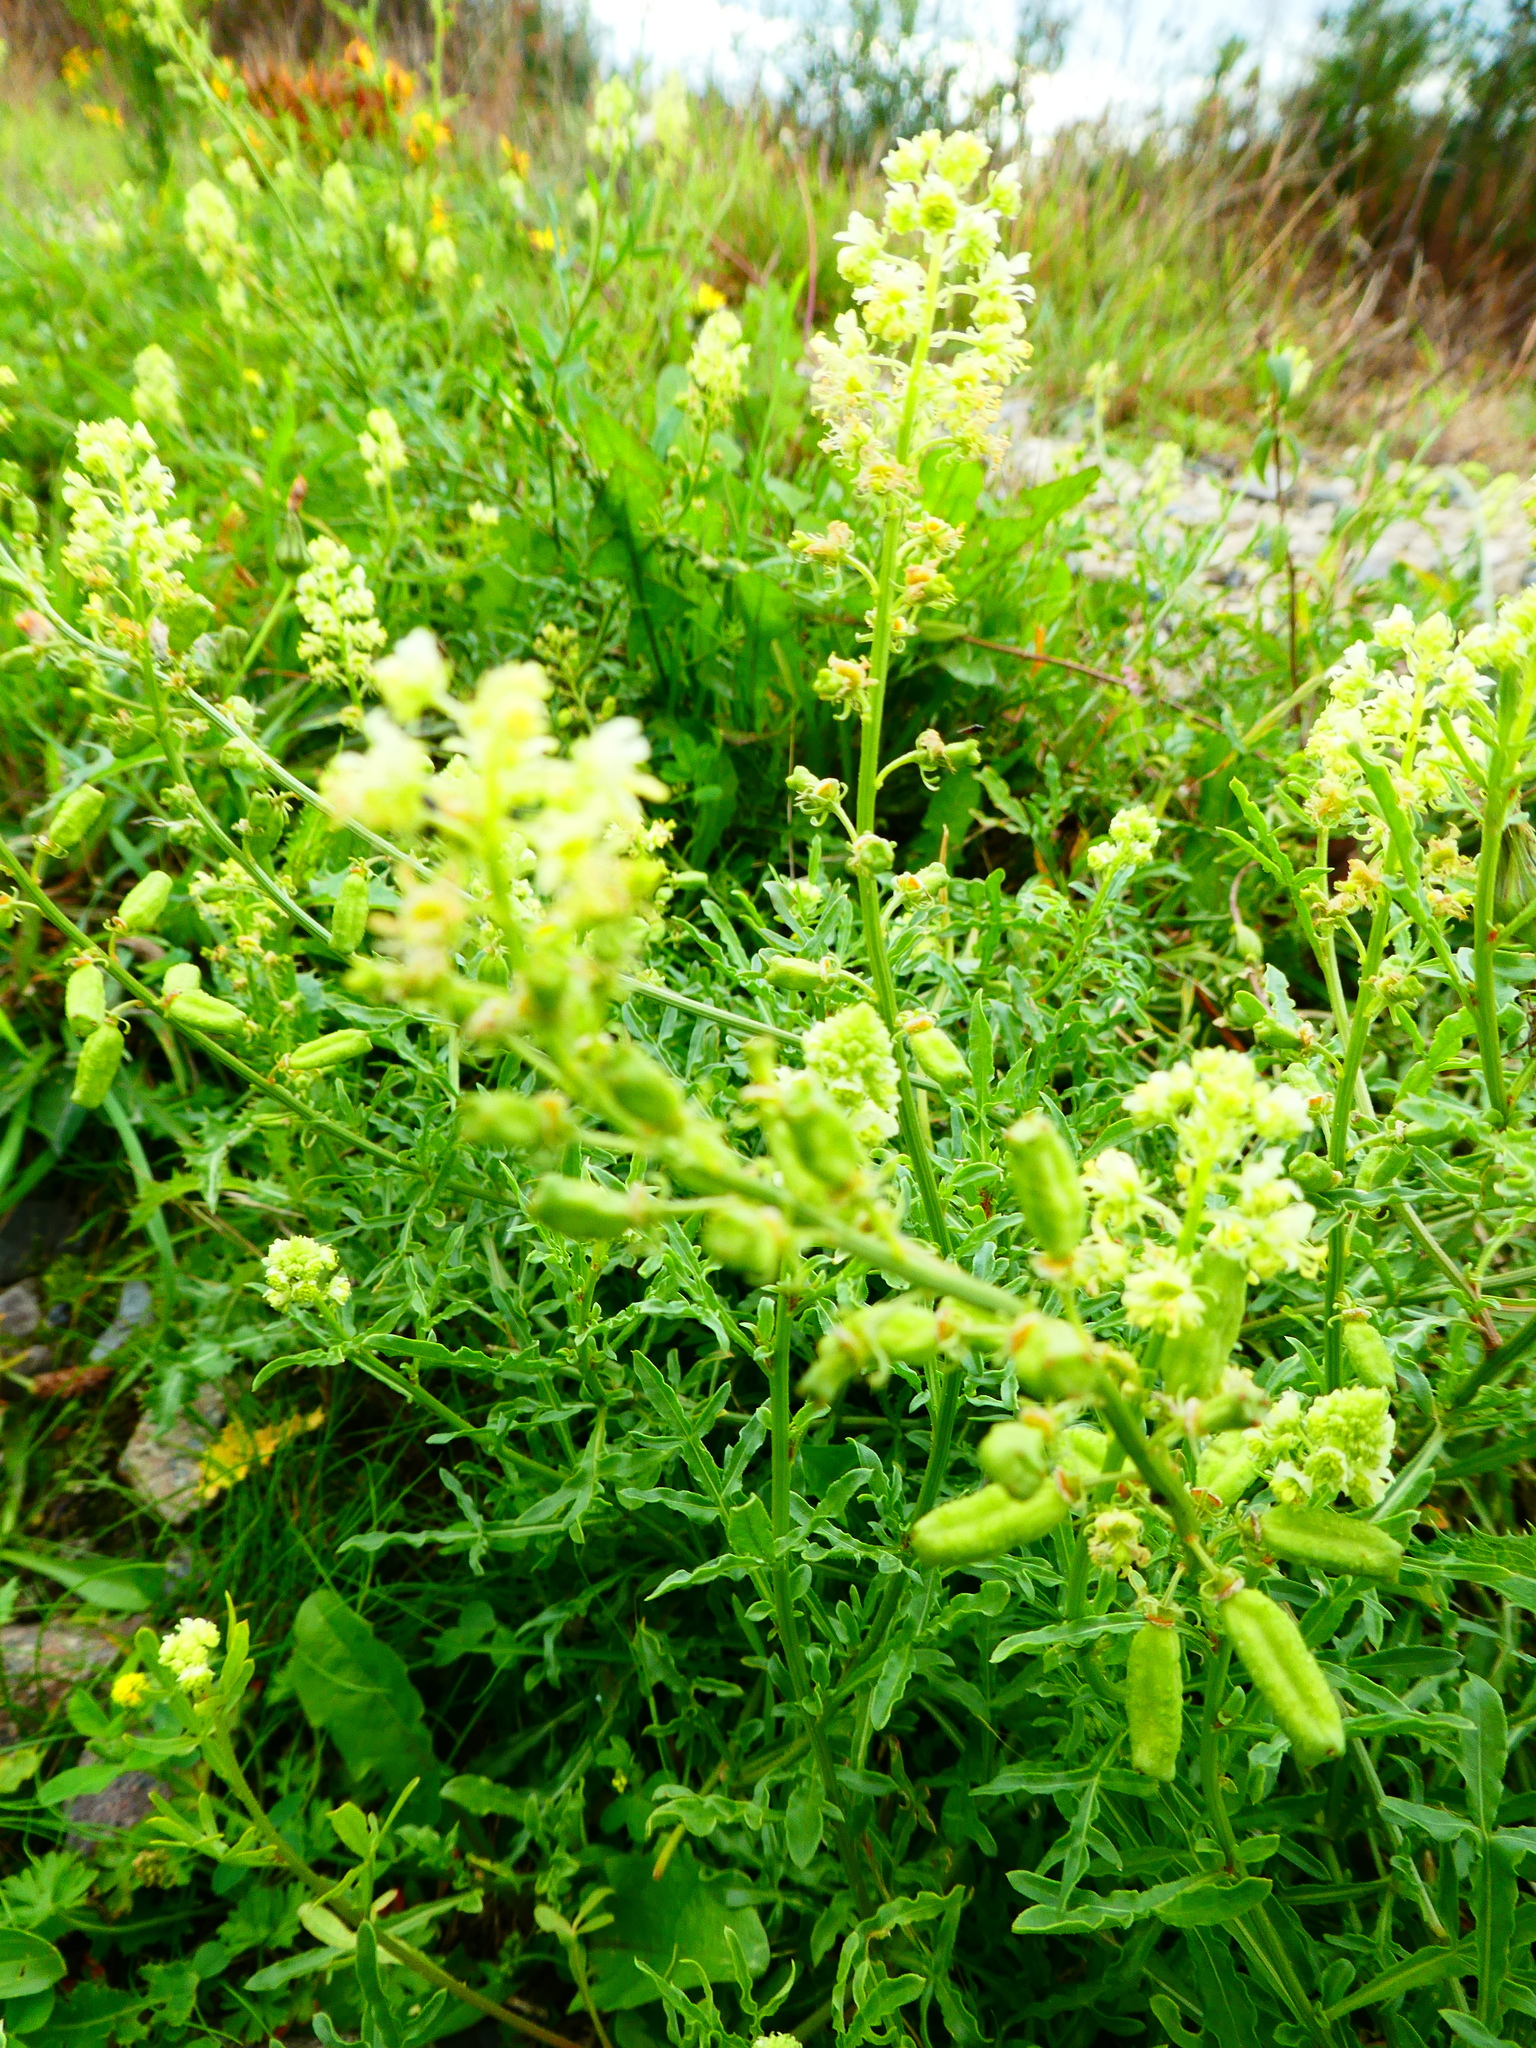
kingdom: Plantae
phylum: Tracheophyta
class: Magnoliopsida
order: Brassicales
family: Resedaceae
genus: Reseda
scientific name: Reseda lutea
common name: Wild mignonette
